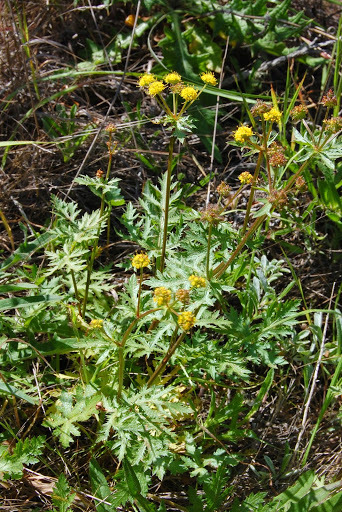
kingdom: Plantae
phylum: Tracheophyta
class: Magnoliopsida
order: Apiales
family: Apiaceae
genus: Sanicula
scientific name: Sanicula arguta
